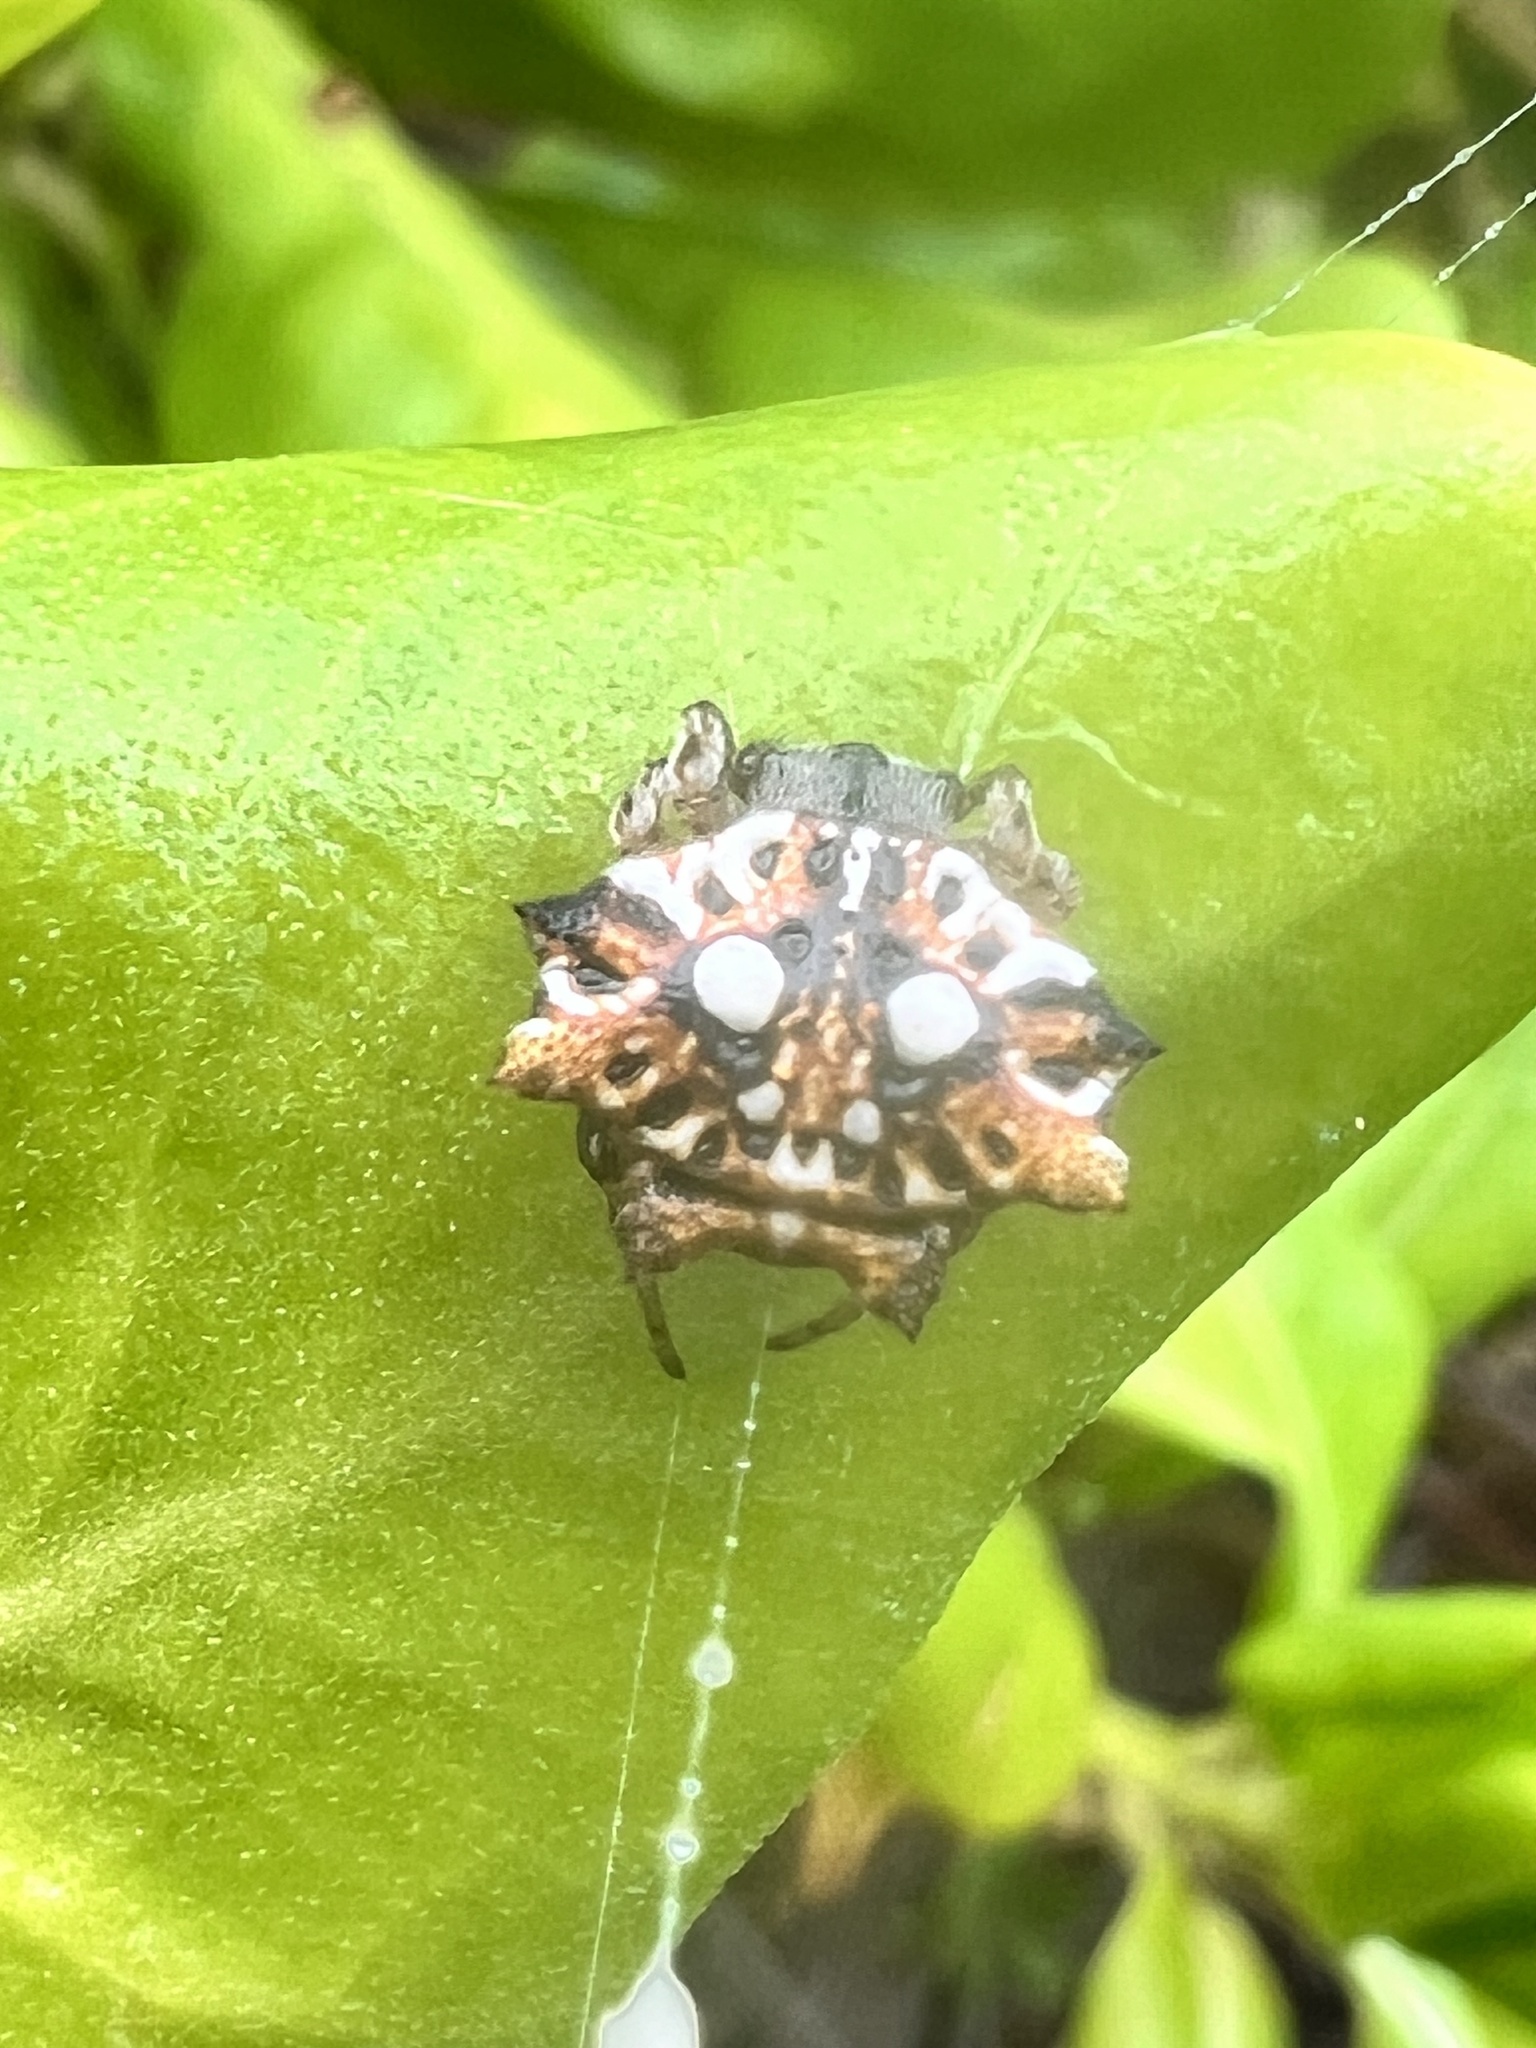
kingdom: Animalia
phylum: Arthropoda
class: Arachnida
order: Araneae
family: Araneidae
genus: Thelacantha
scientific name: Thelacantha brevispina
